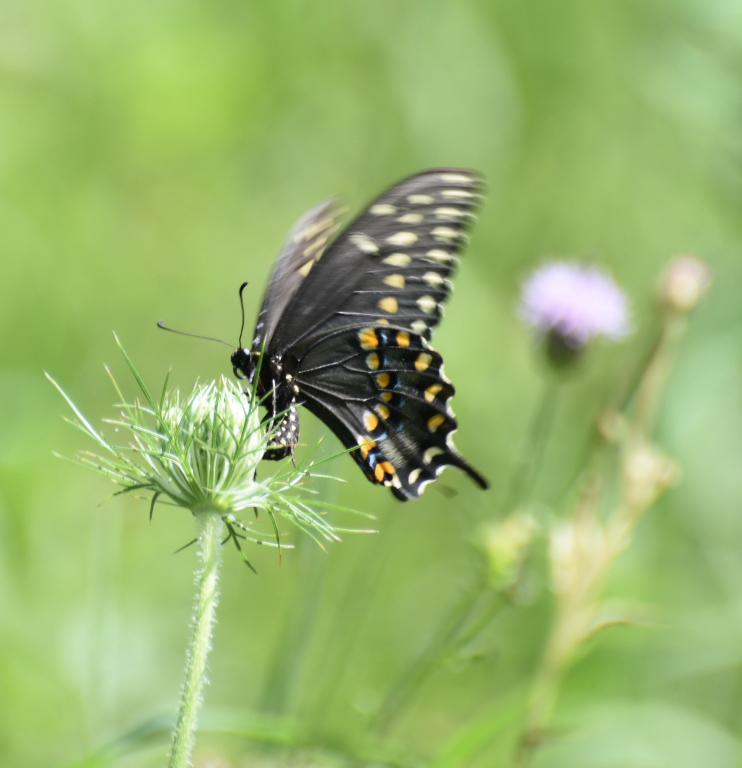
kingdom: Animalia
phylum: Arthropoda
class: Insecta
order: Lepidoptera
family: Papilionidae
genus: Papilio
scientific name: Papilio polyxenes
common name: Black swallowtail
